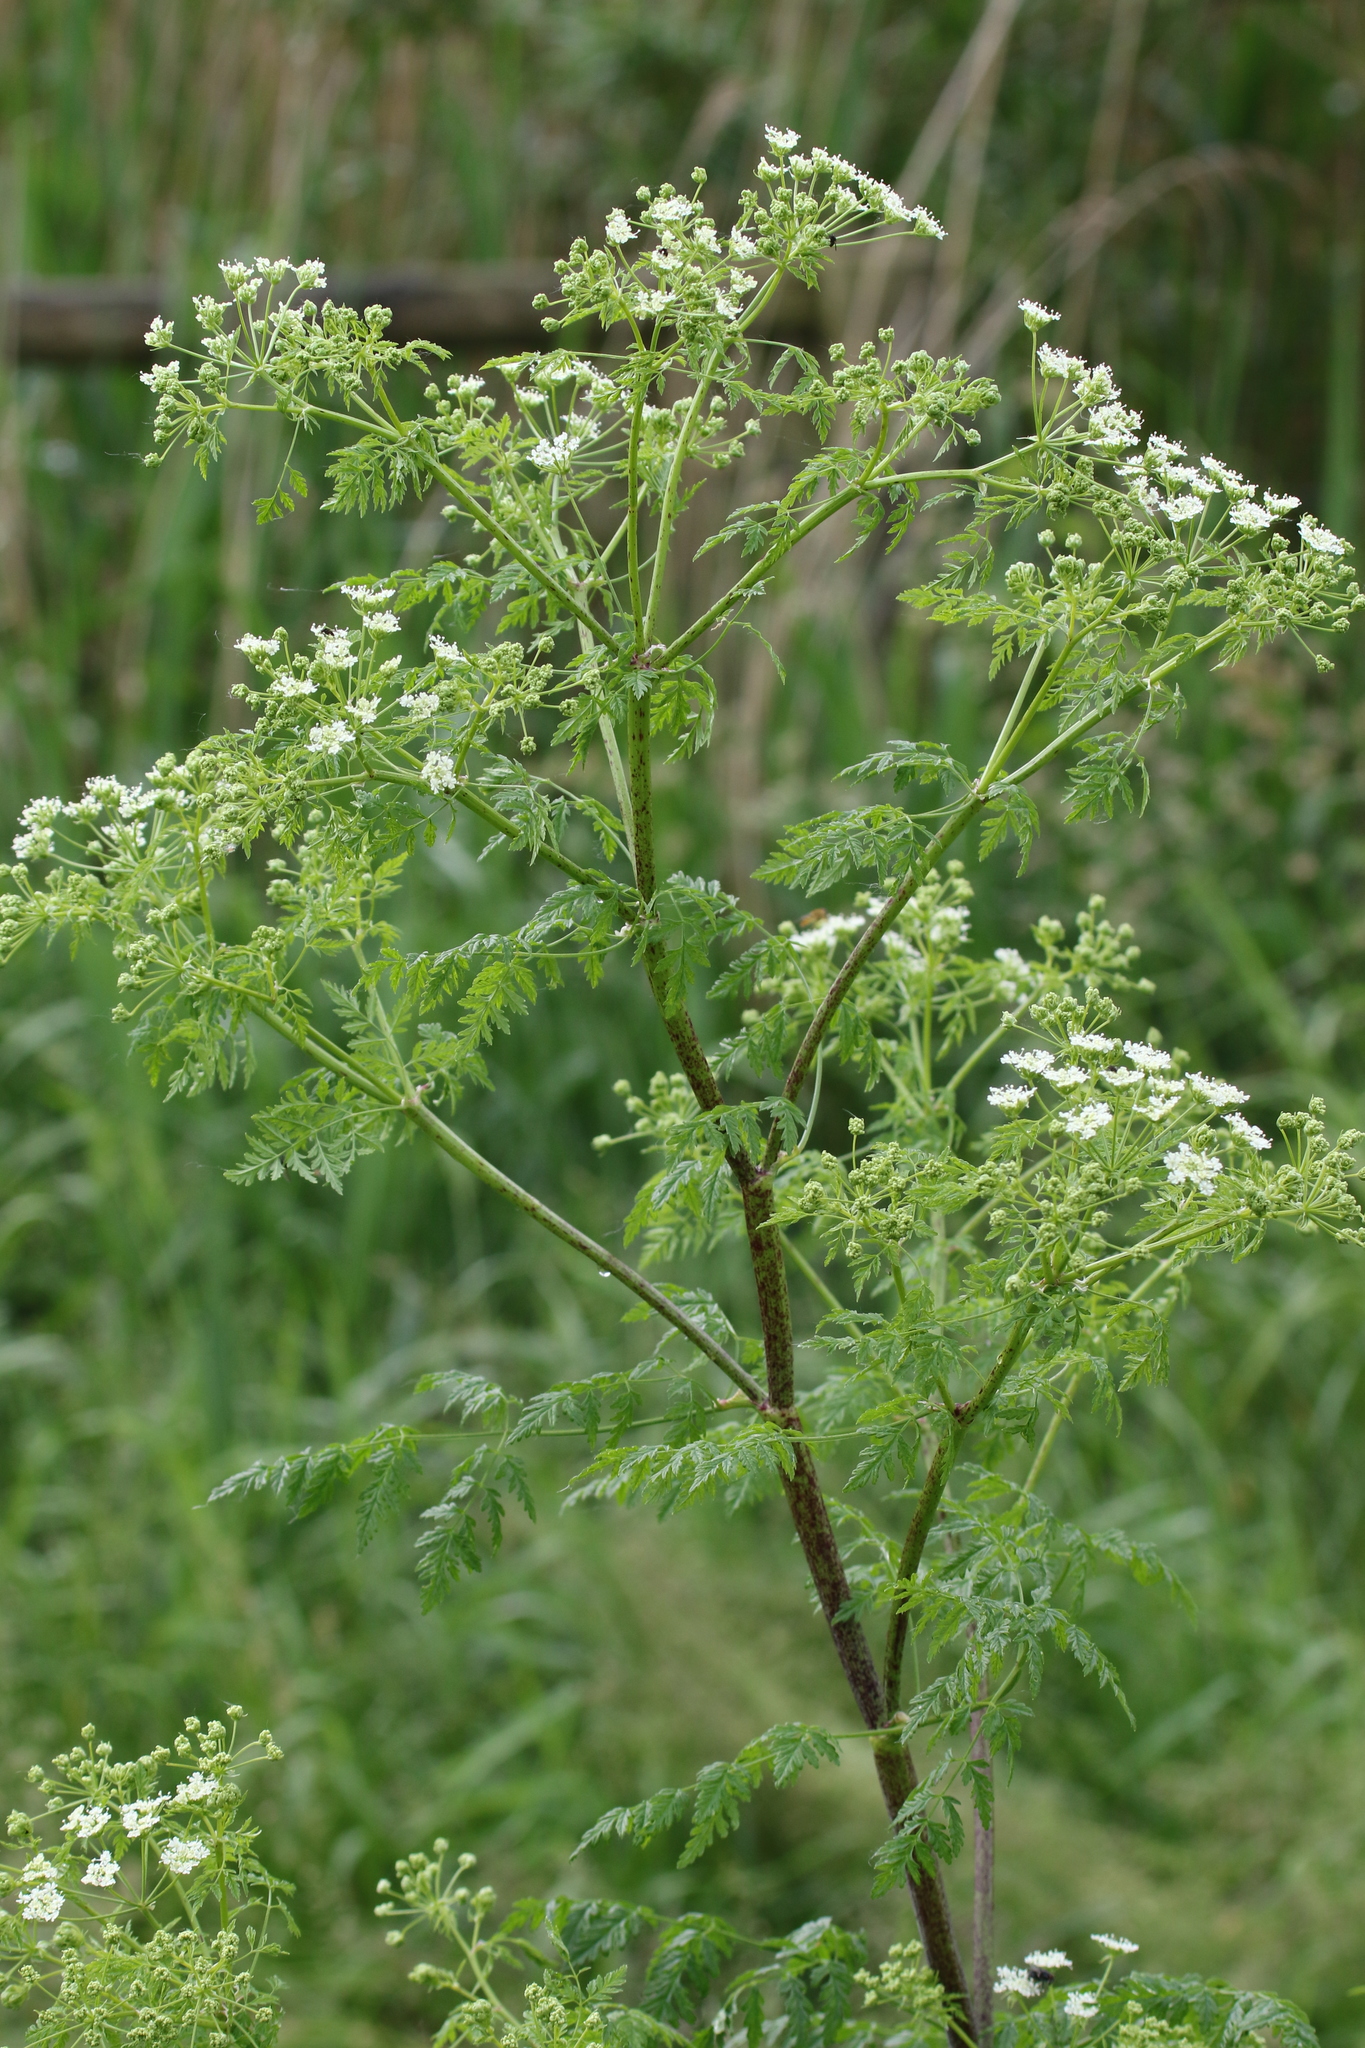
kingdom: Plantae
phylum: Tracheophyta
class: Magnoliopsida
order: Apiales
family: Apiaceae
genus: Conium
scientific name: Conium maculatum
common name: Hemlock
